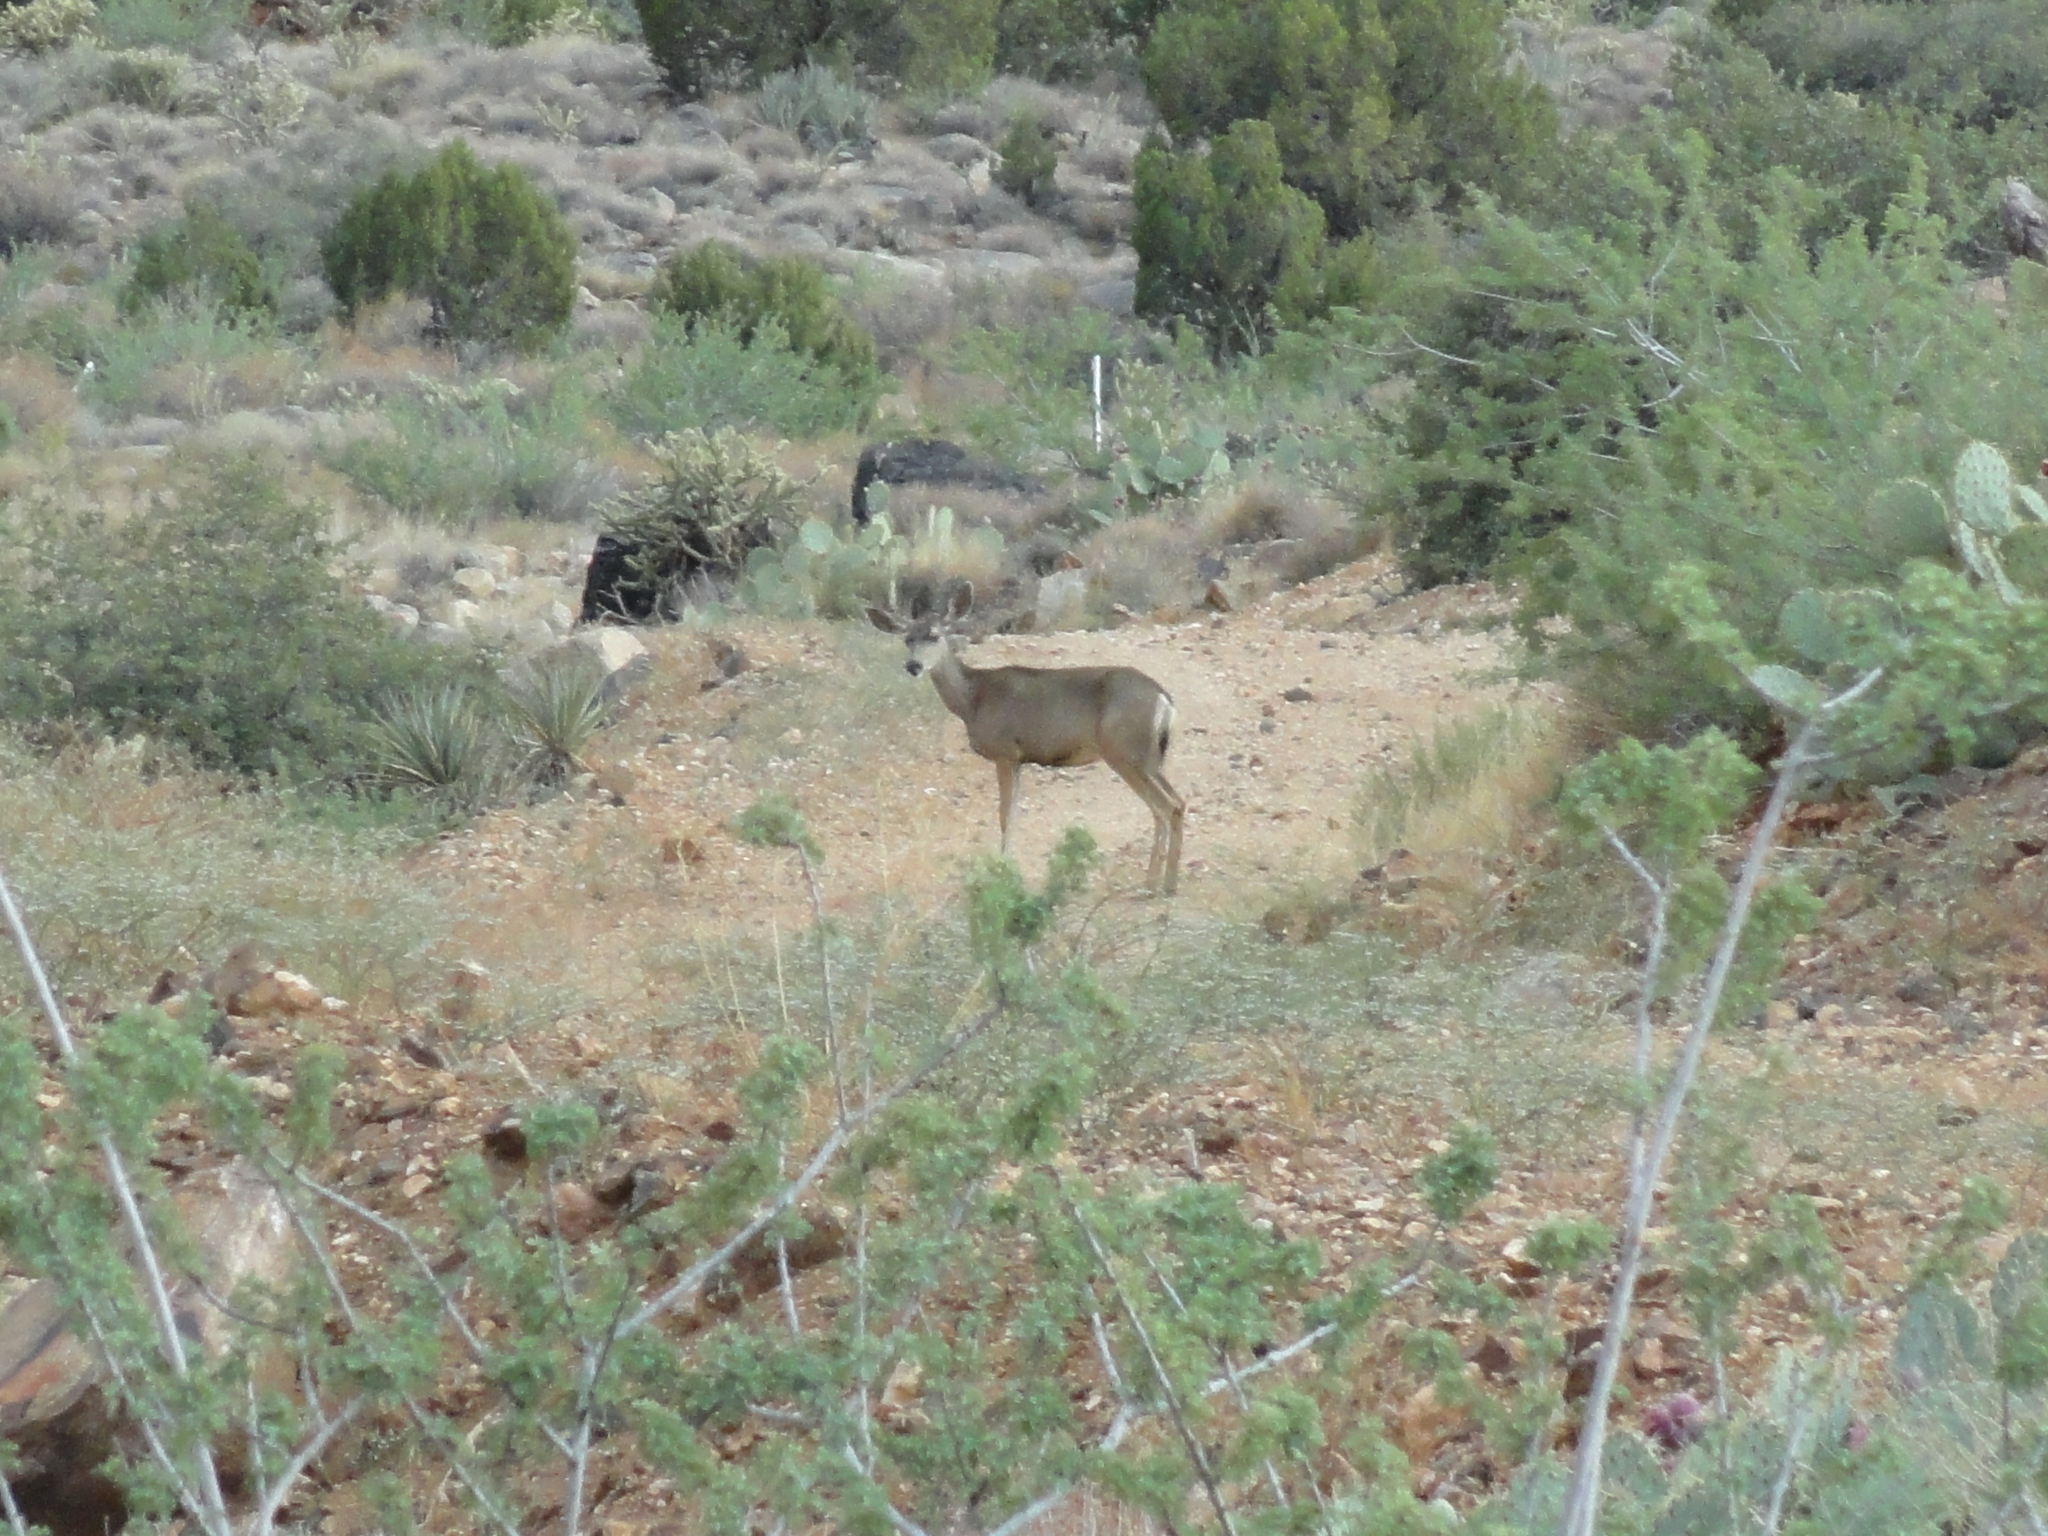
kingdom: Animalia
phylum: Chordata
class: Mammalia
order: Artiodactyla
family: Cervidae
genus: Odocoileus
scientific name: Odocoileus hemionus
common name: Mule deer
